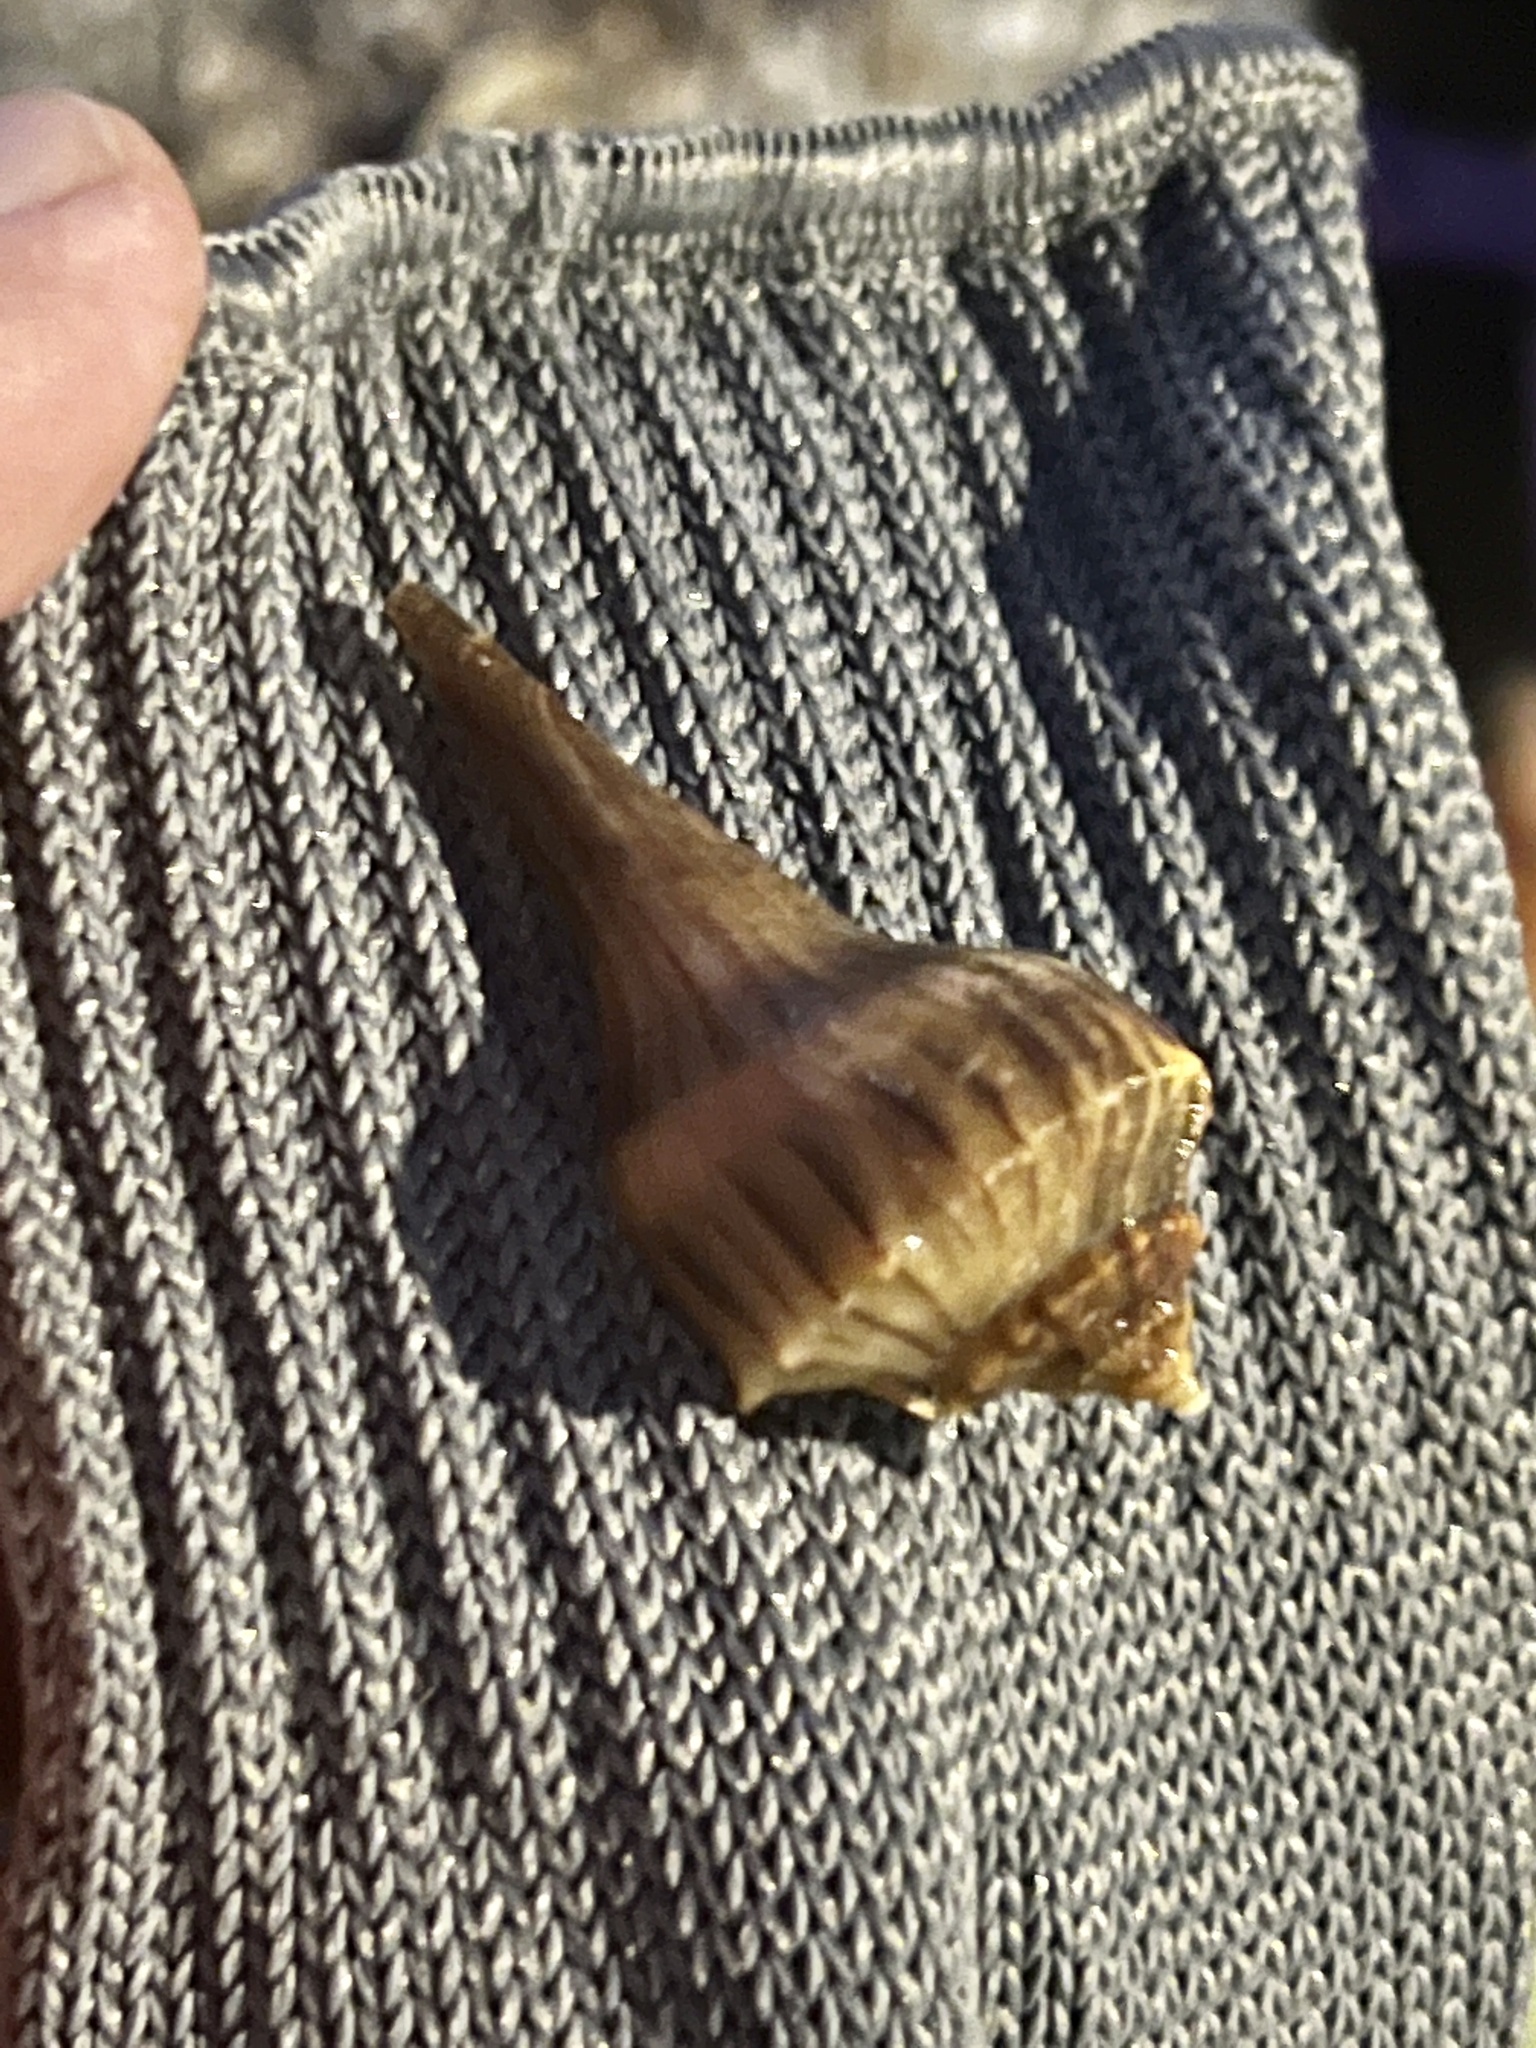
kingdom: Animalia
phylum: Mollusca
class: Gastropoda
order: Neogastropoda
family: Busyconidae
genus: Sinistrofulgur
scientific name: Sinistrofulgur pulleyi
